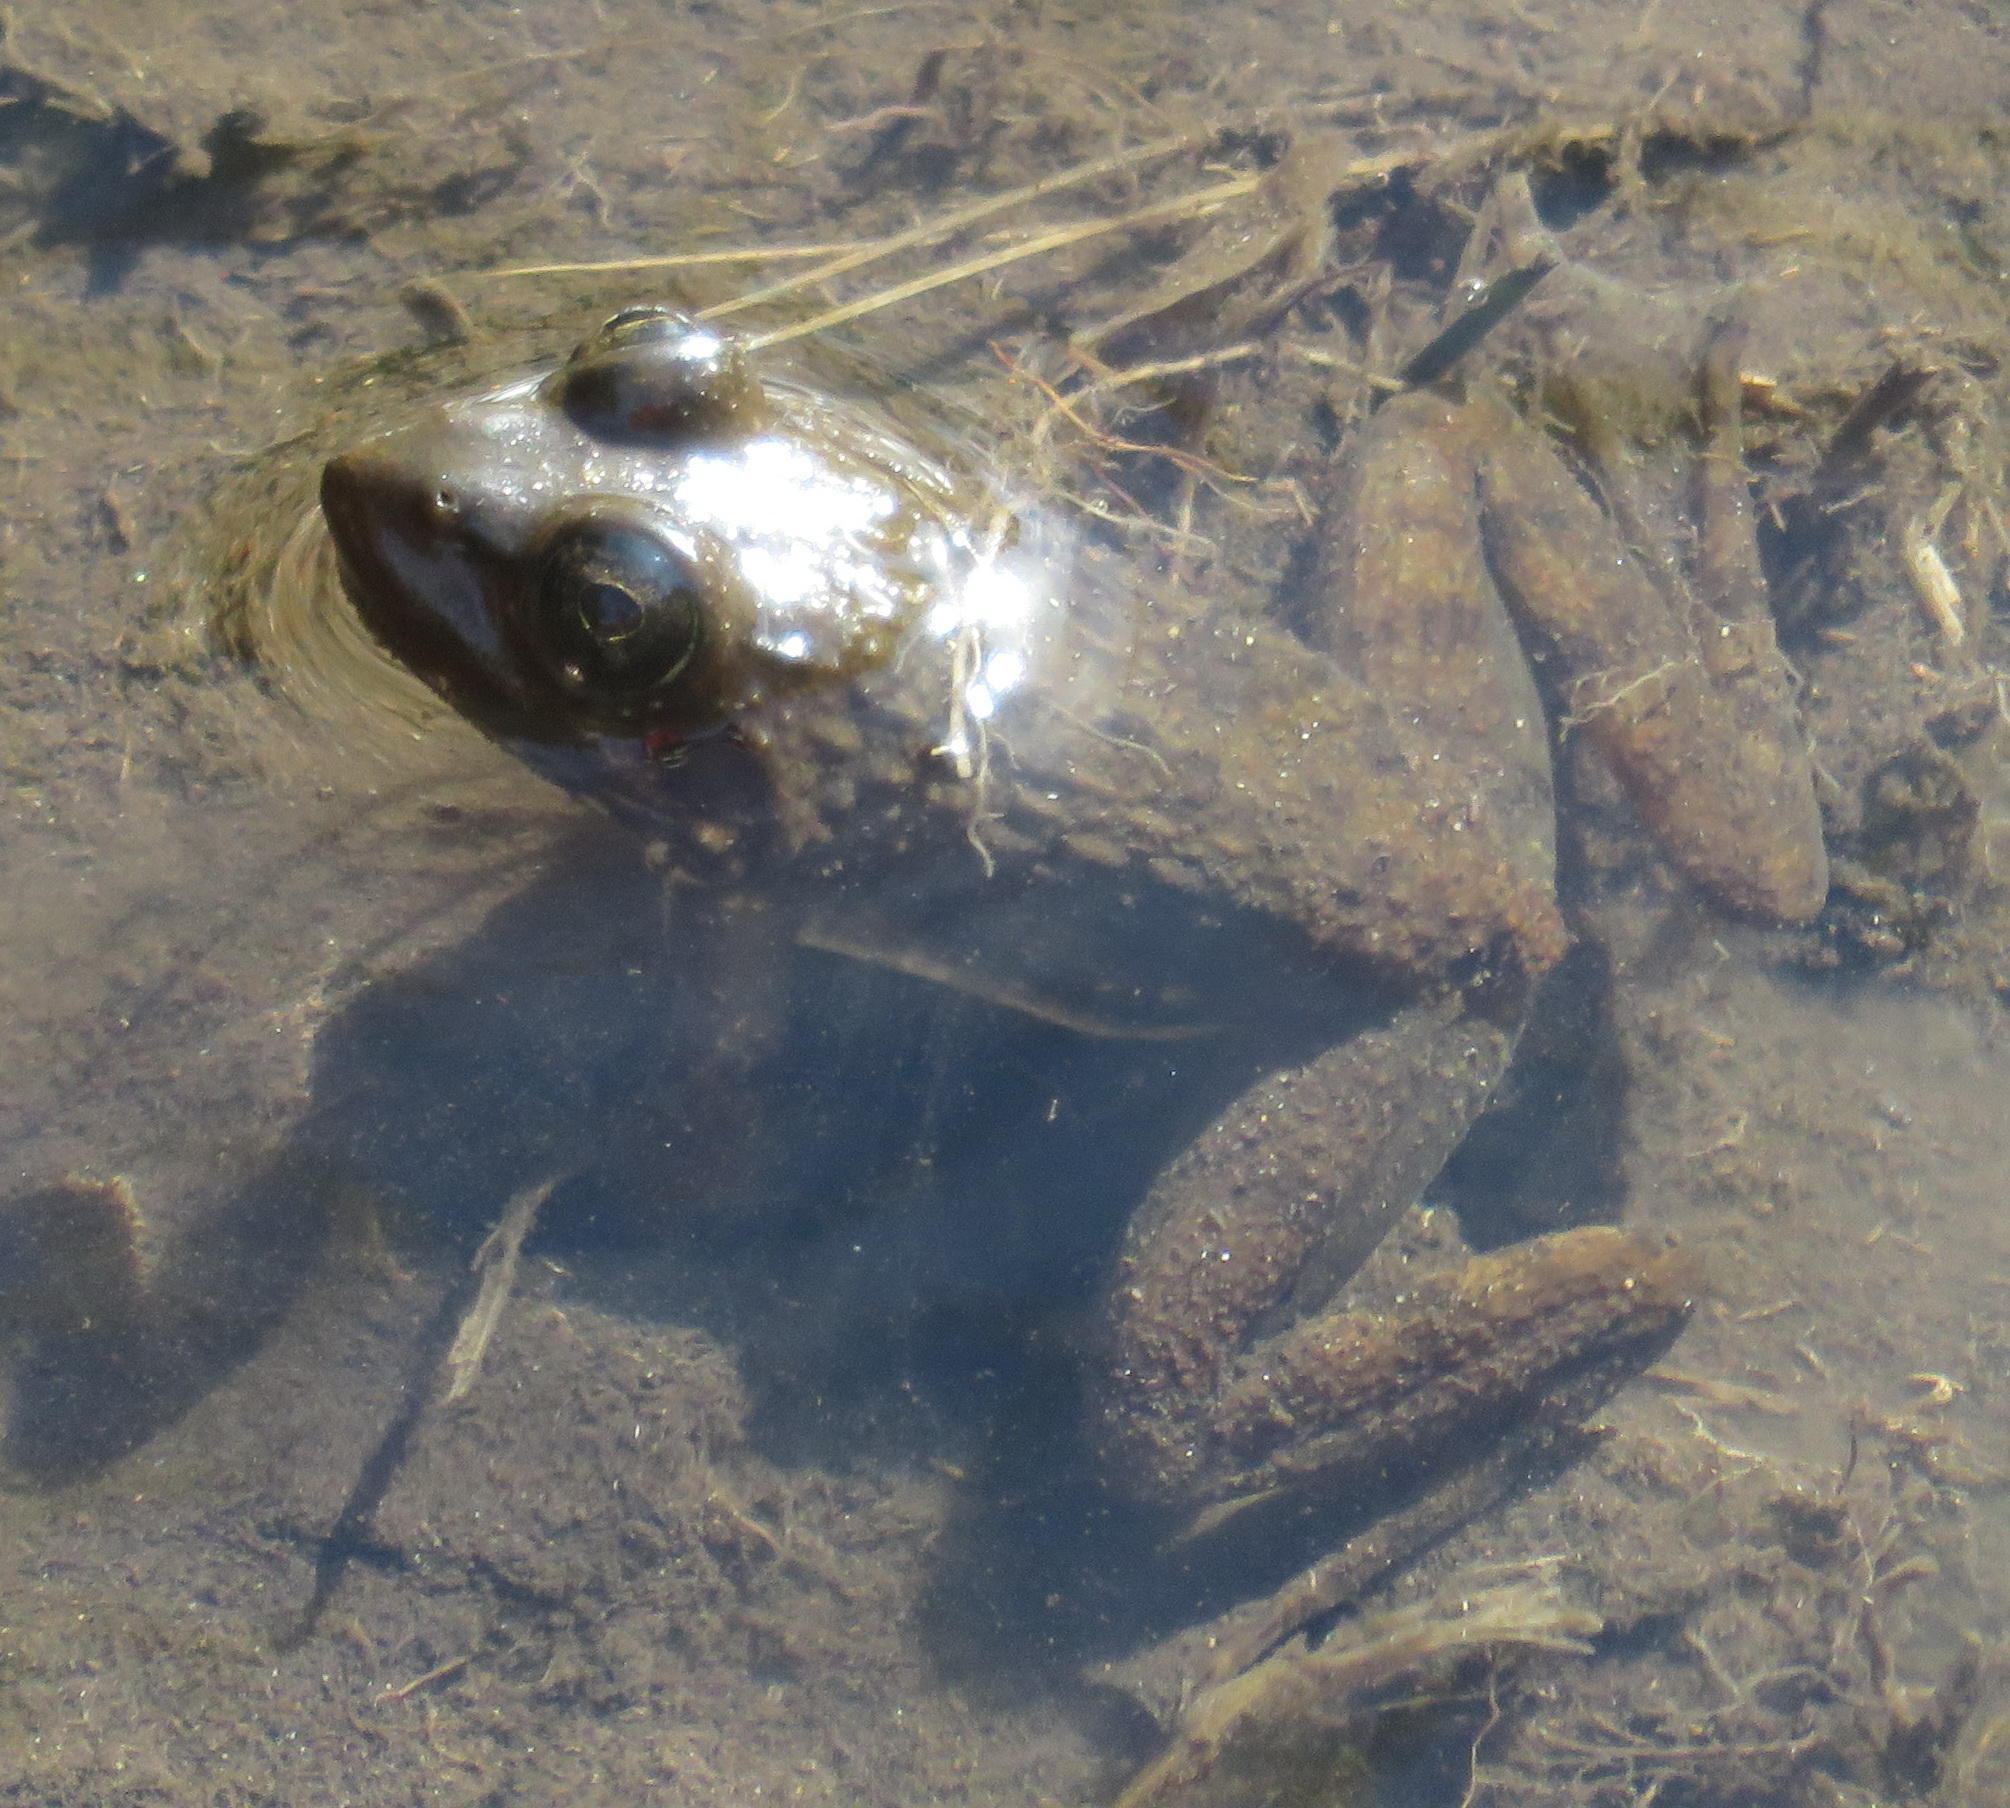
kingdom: Animalia
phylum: Chordata
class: Amphibia
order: Anura
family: Pyxicephalidae
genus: Amietia
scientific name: Amietia fuscigula
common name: Cape rana
